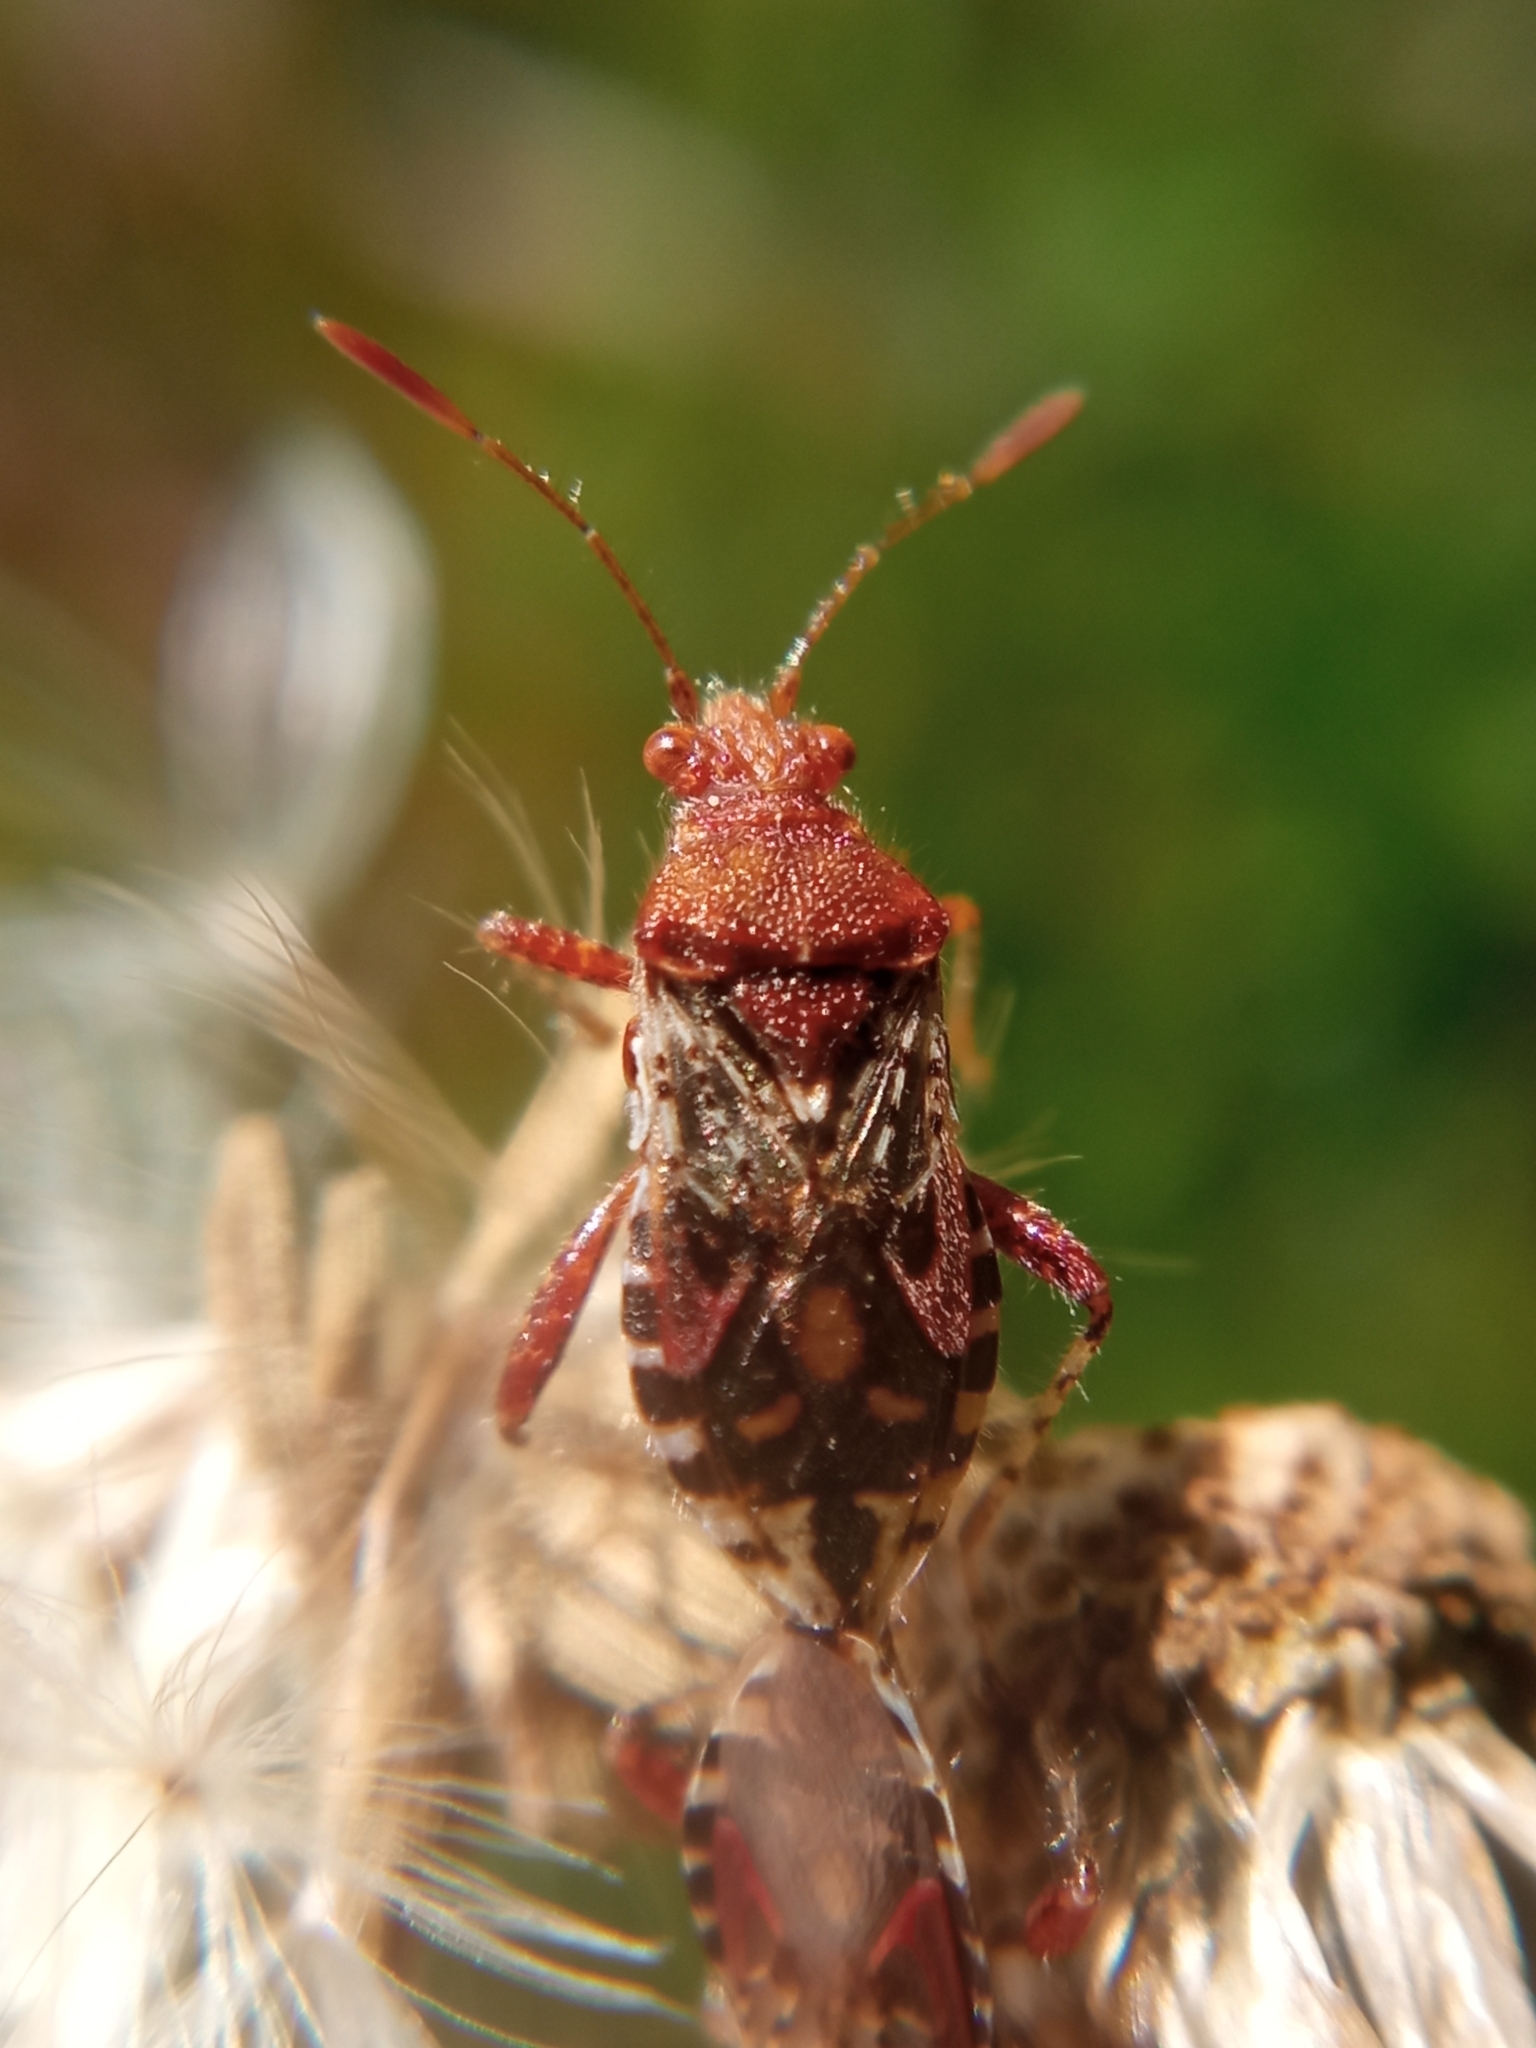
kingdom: Animalia
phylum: Arthropoda
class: Insecta
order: Hemiptera
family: Rhopalidae
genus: Rhopalus
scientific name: Rhopalus subrufus
